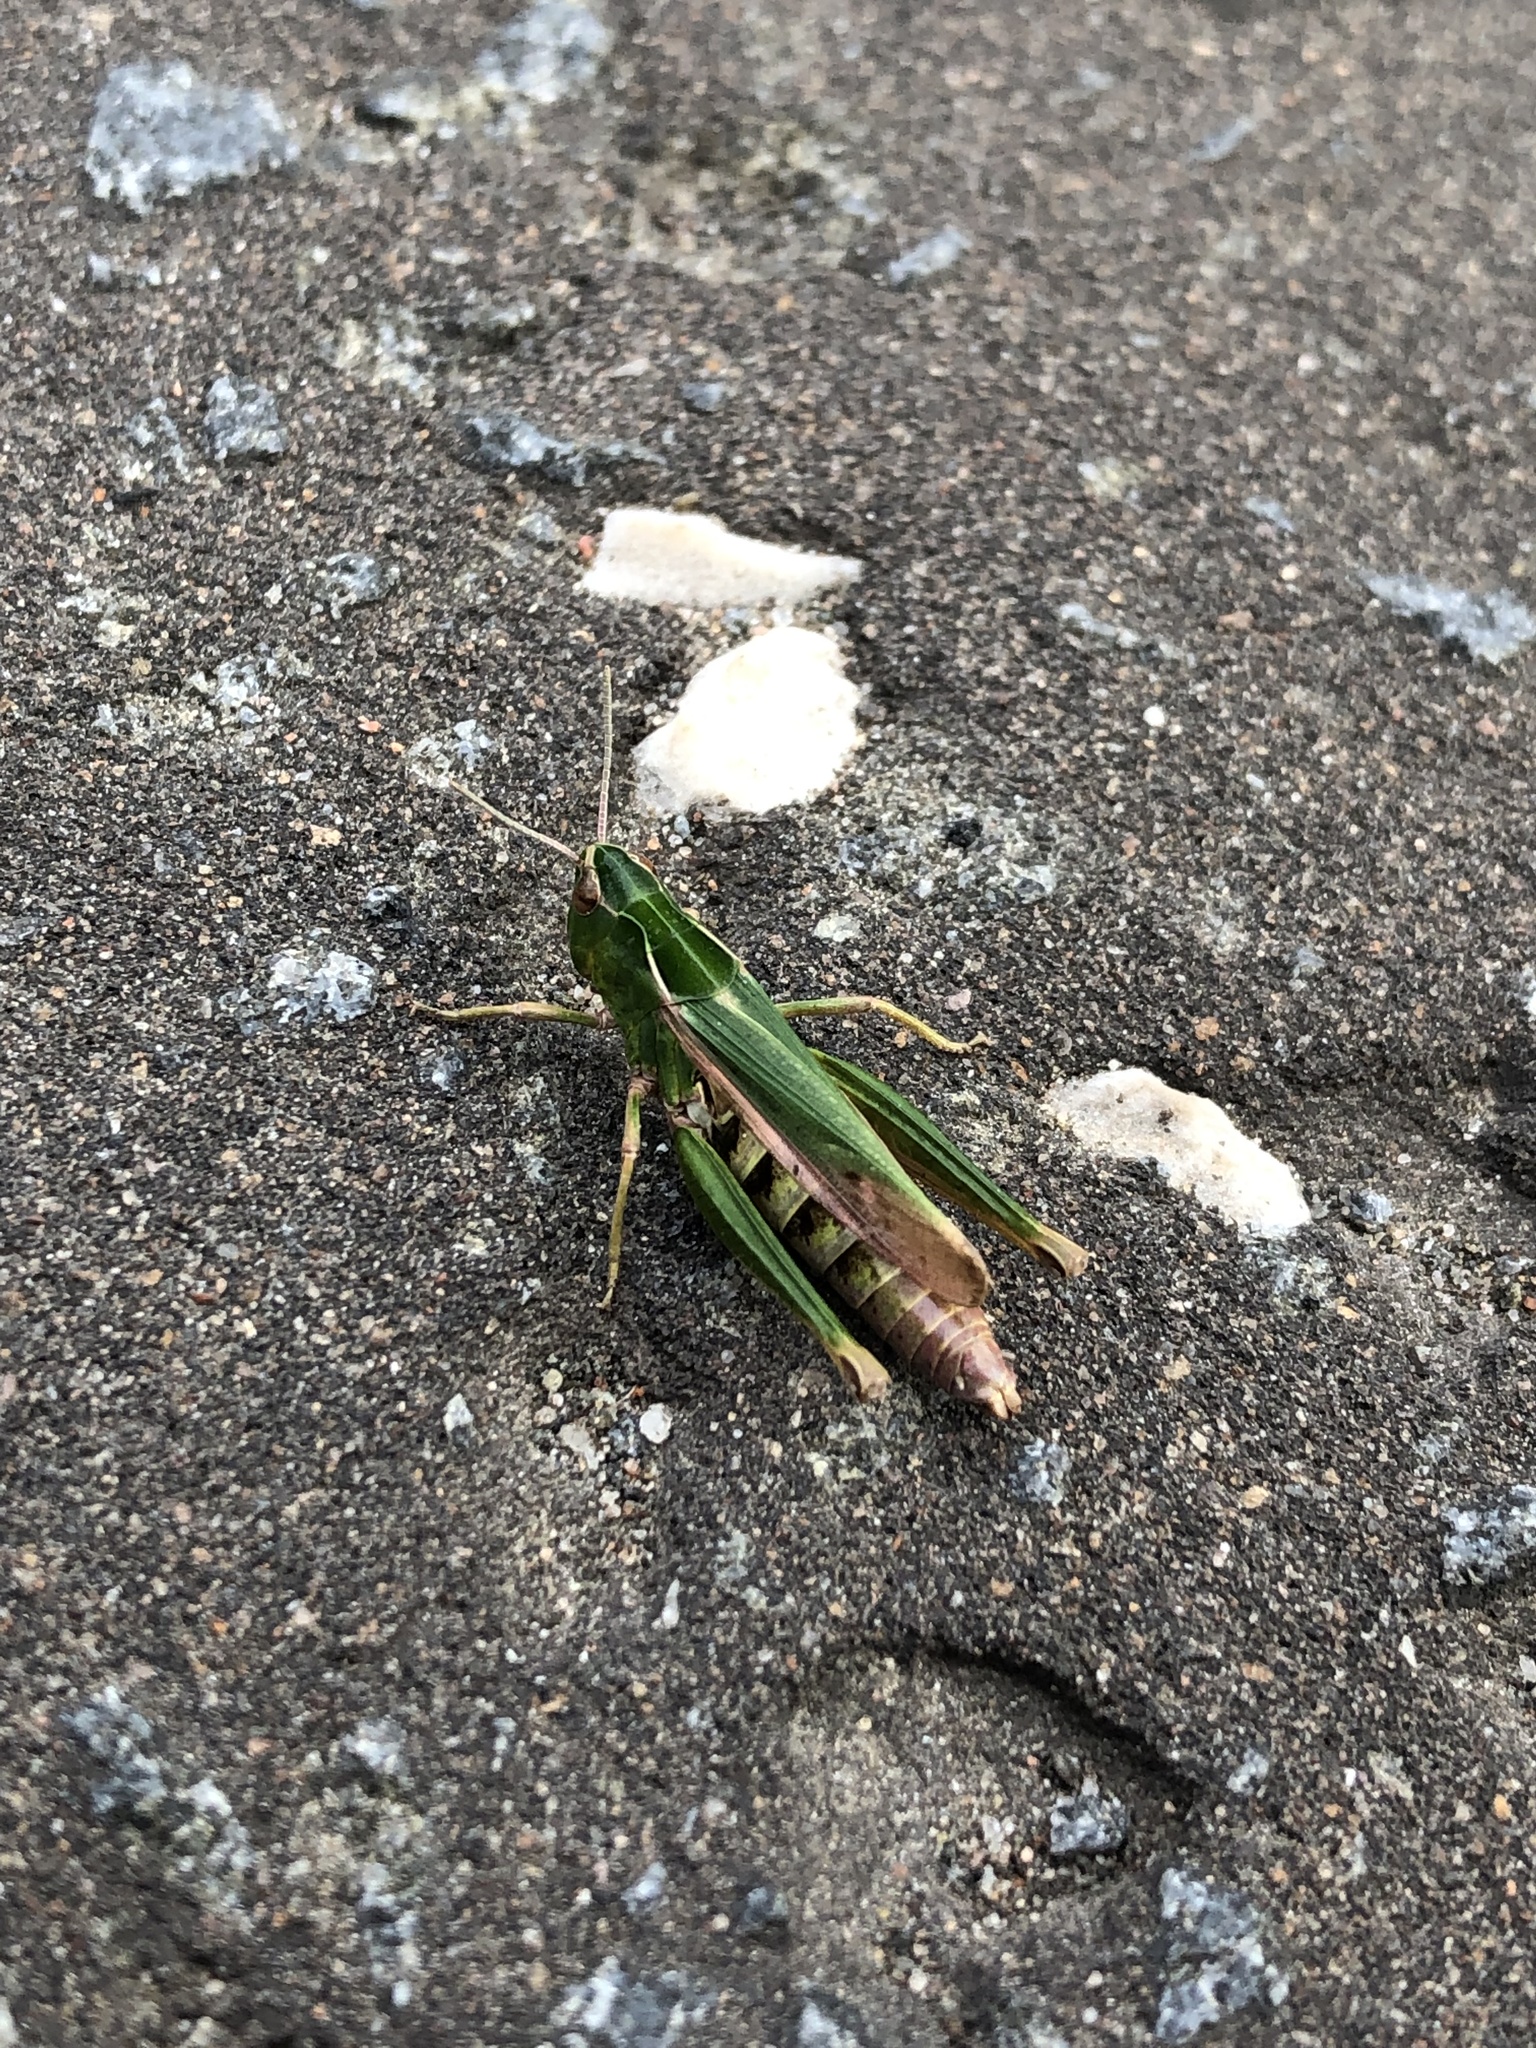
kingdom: Animalia
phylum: Arthropoda
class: Insecta
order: Orthoptera
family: Acrididae
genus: Omocestus
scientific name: Omocestus viridulus
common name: Common green grasshopper
